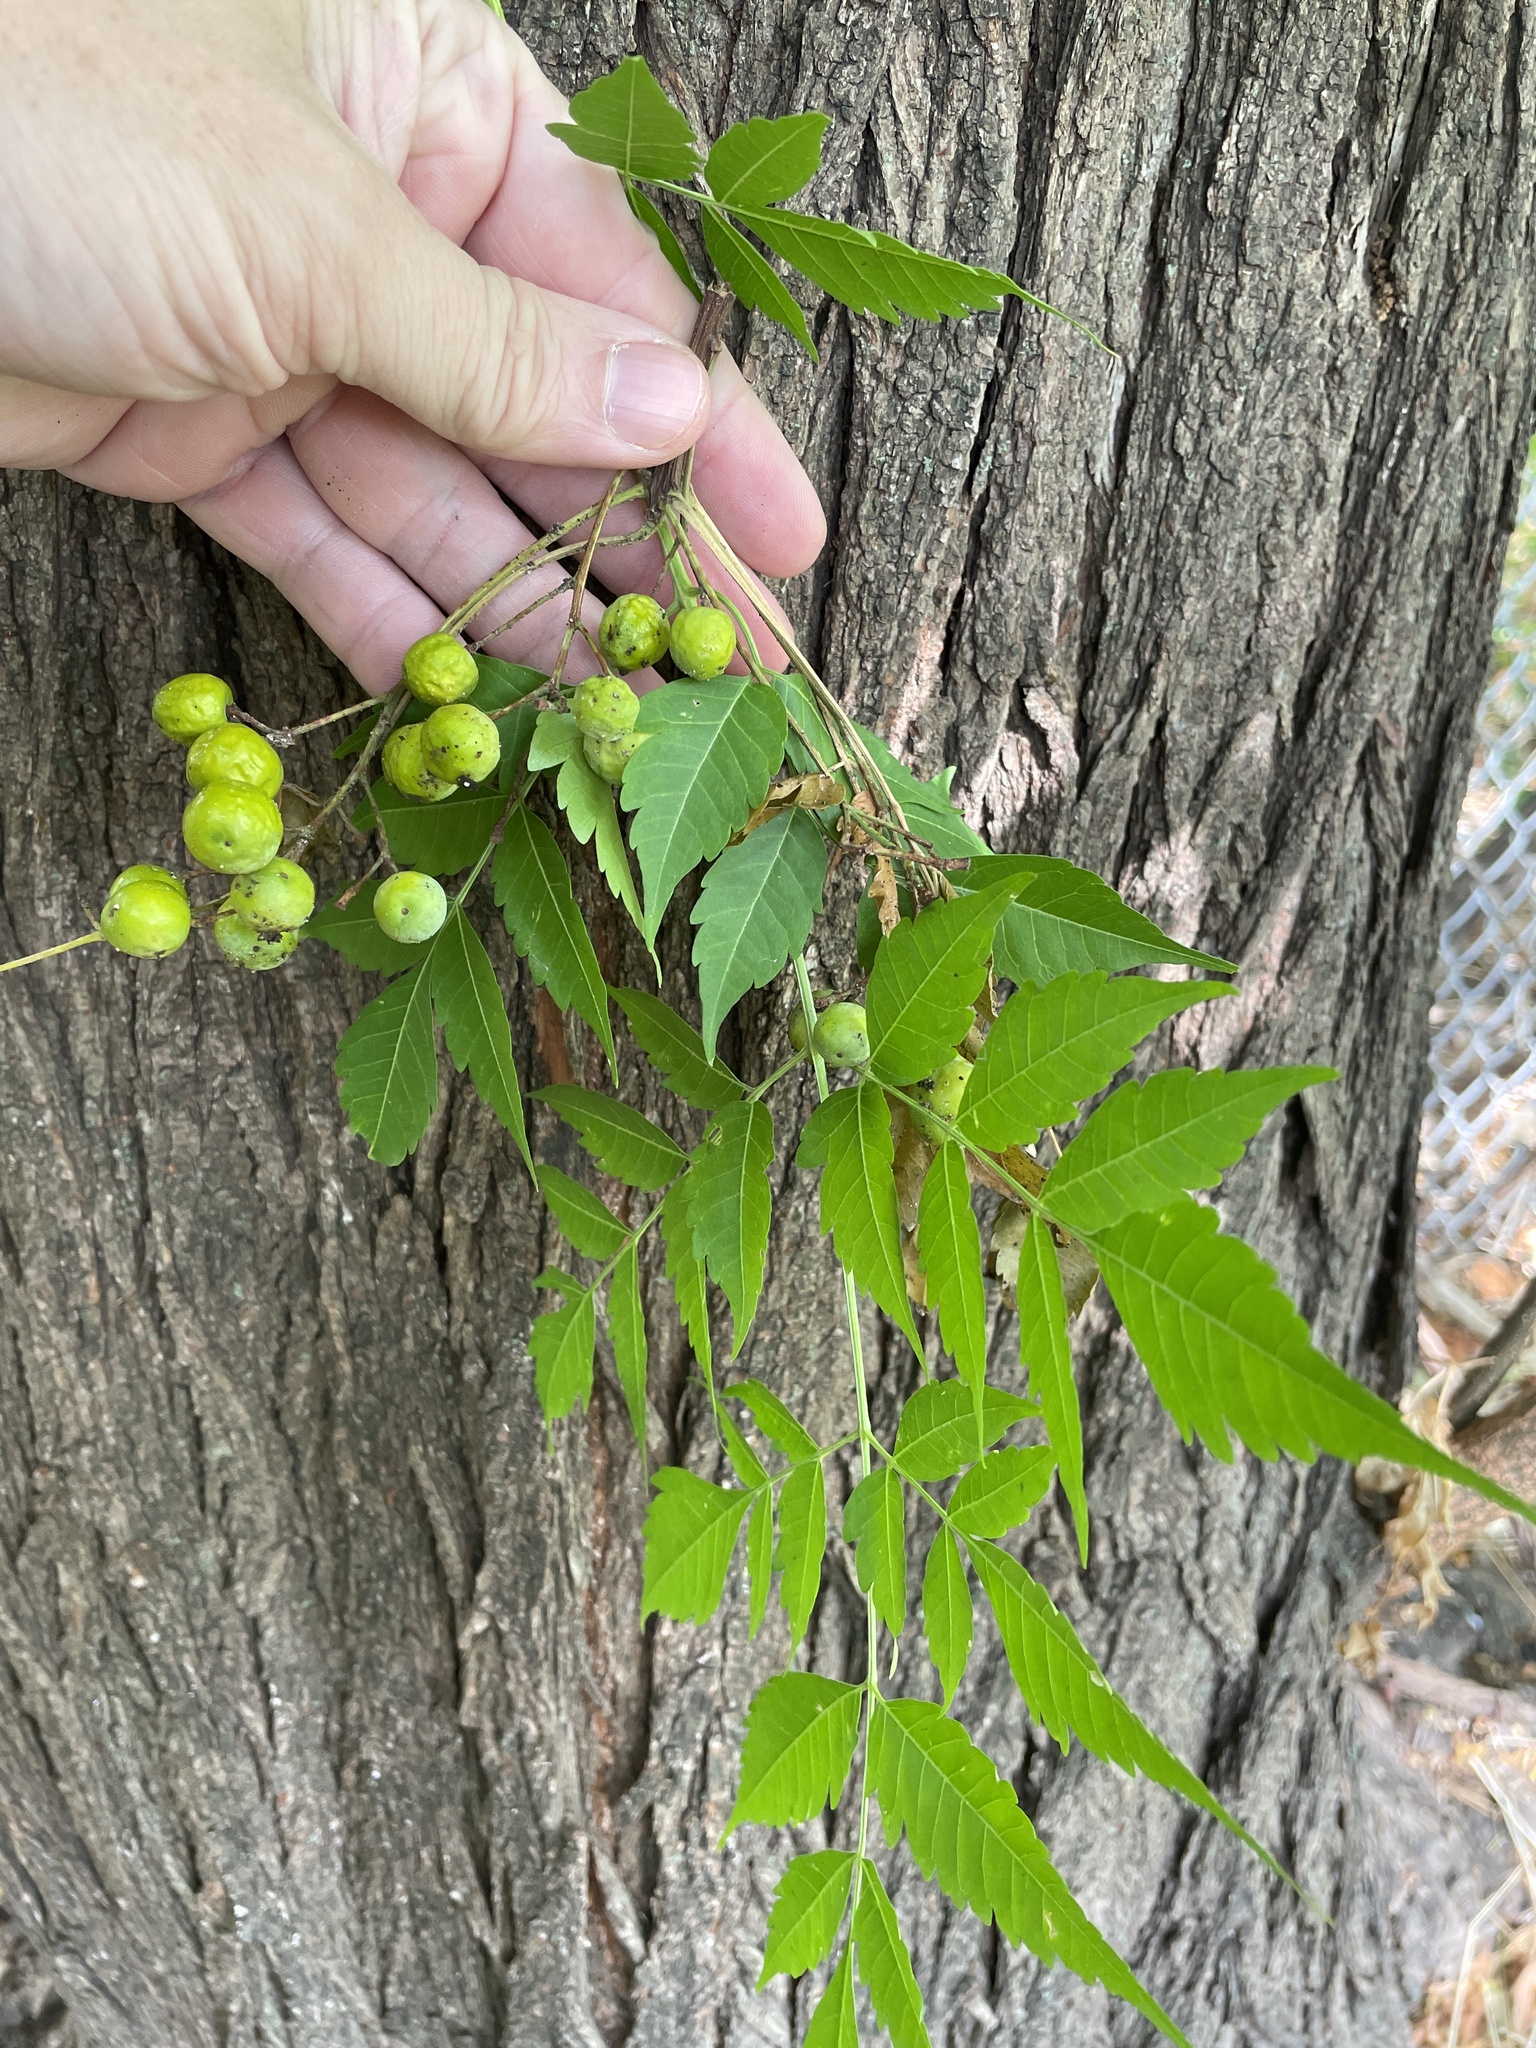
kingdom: Plantae
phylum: Tracheophyta
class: Magnoliopsida
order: Sapindales
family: Meliaceae
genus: Melia
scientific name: Melia azedarach
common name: Chinaberrytree
